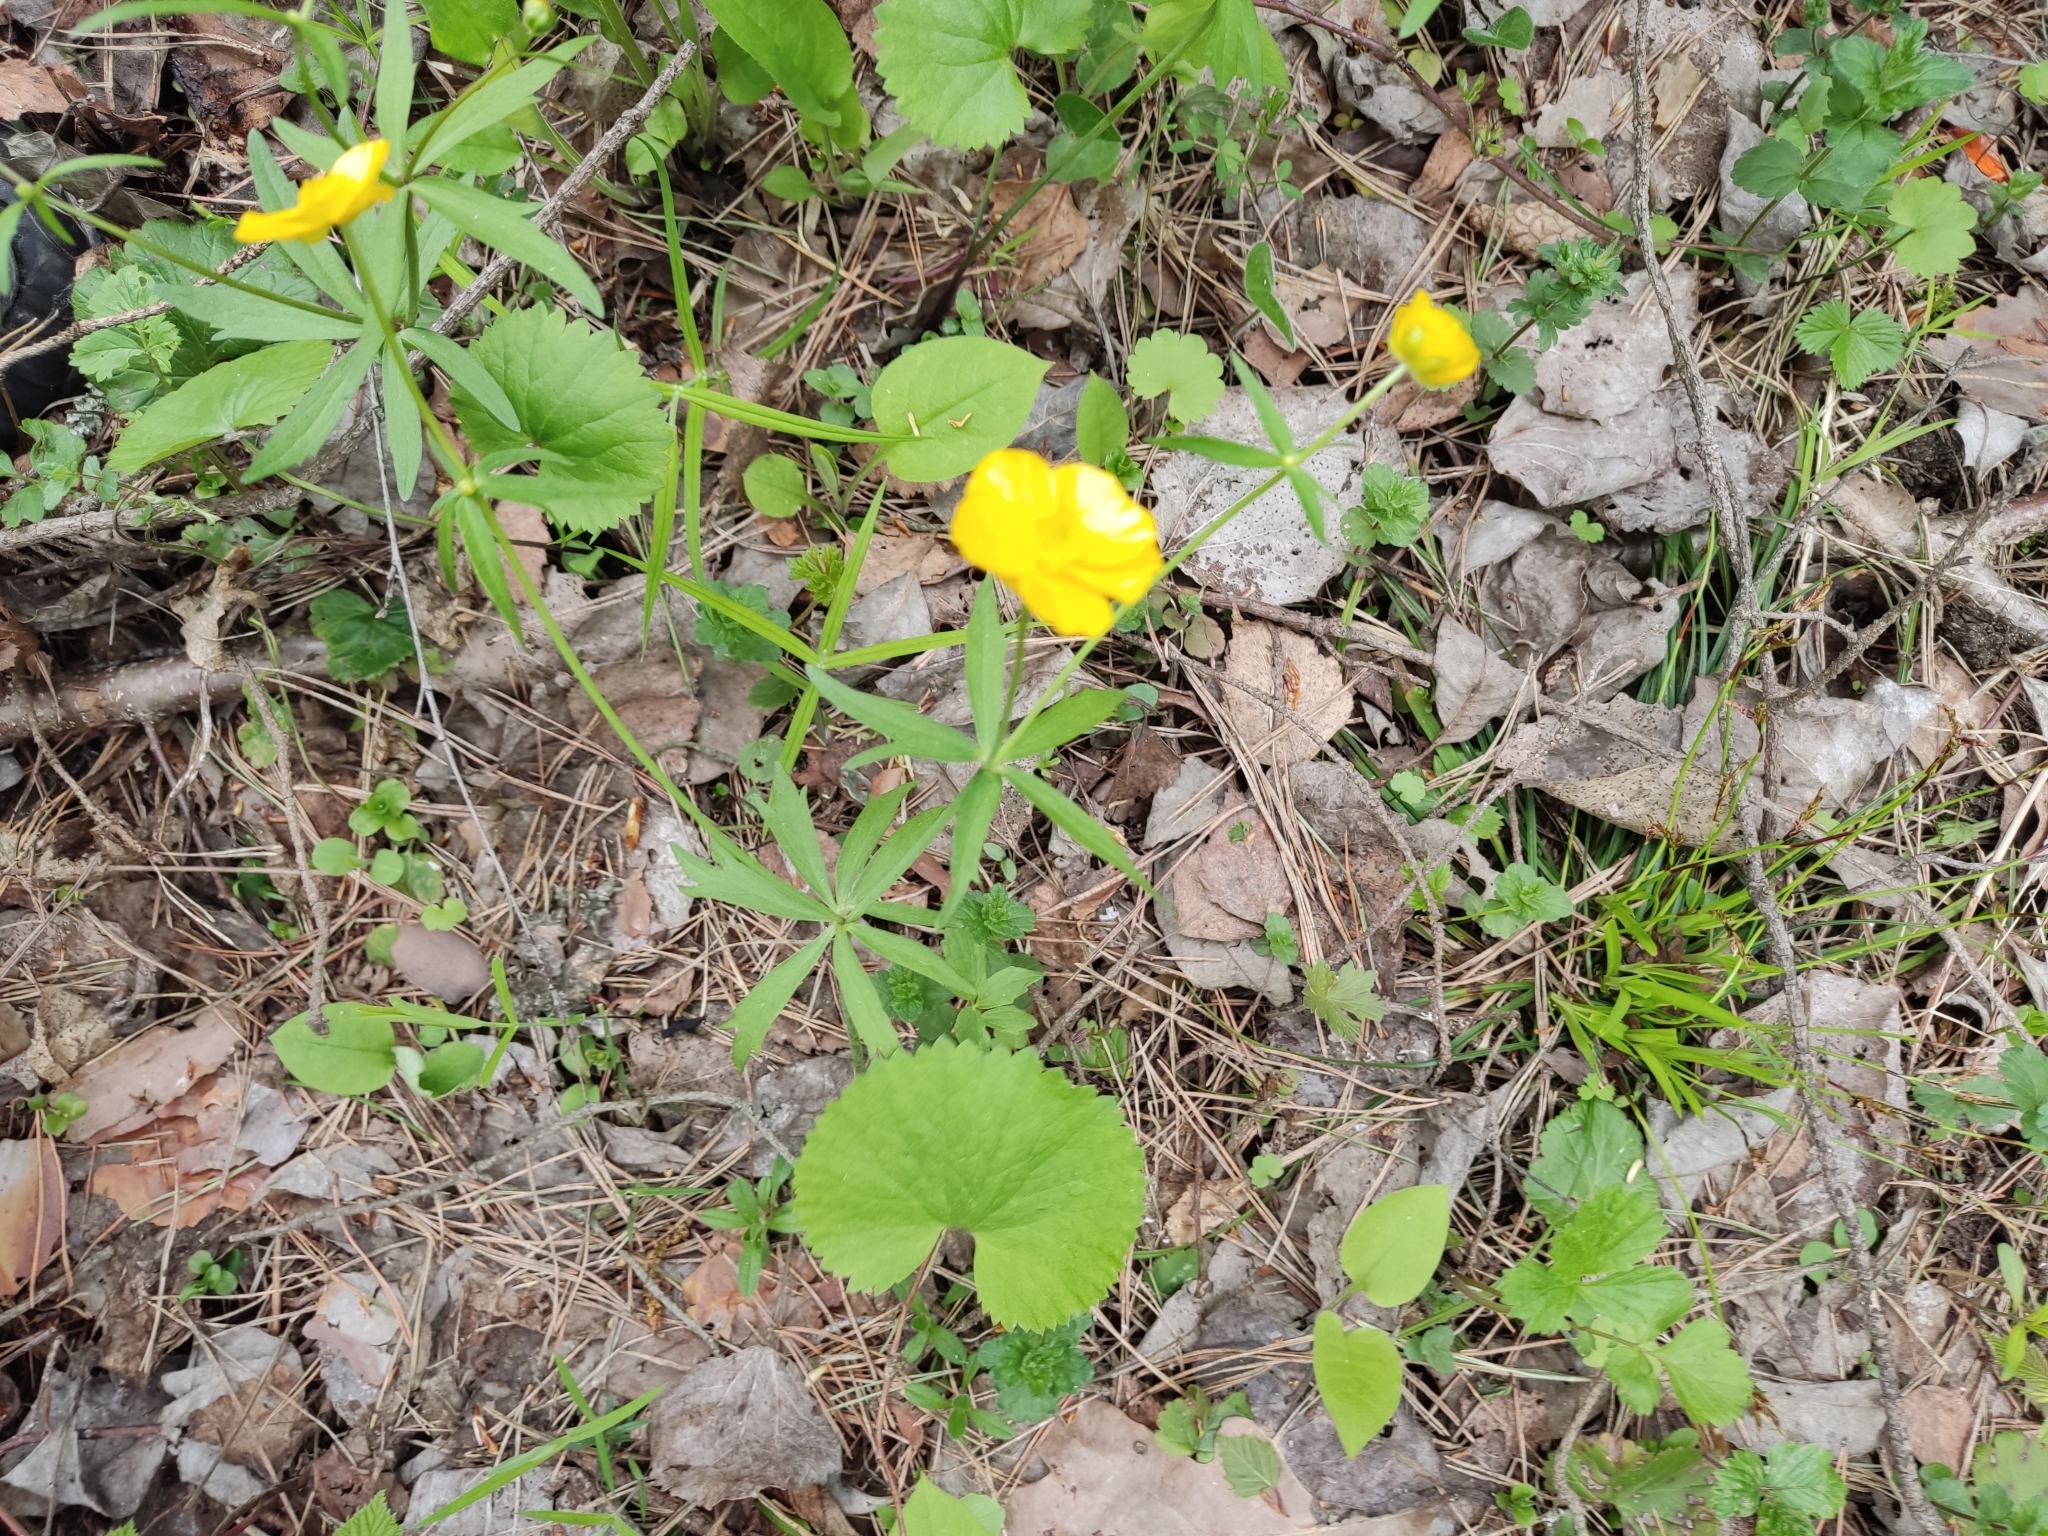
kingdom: Plantae
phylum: Tracheophyta
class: Magnoliopsida
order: Ranunculales
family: Ranunculaceae
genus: Ranunculus
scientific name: Ranunculus cassubicus
